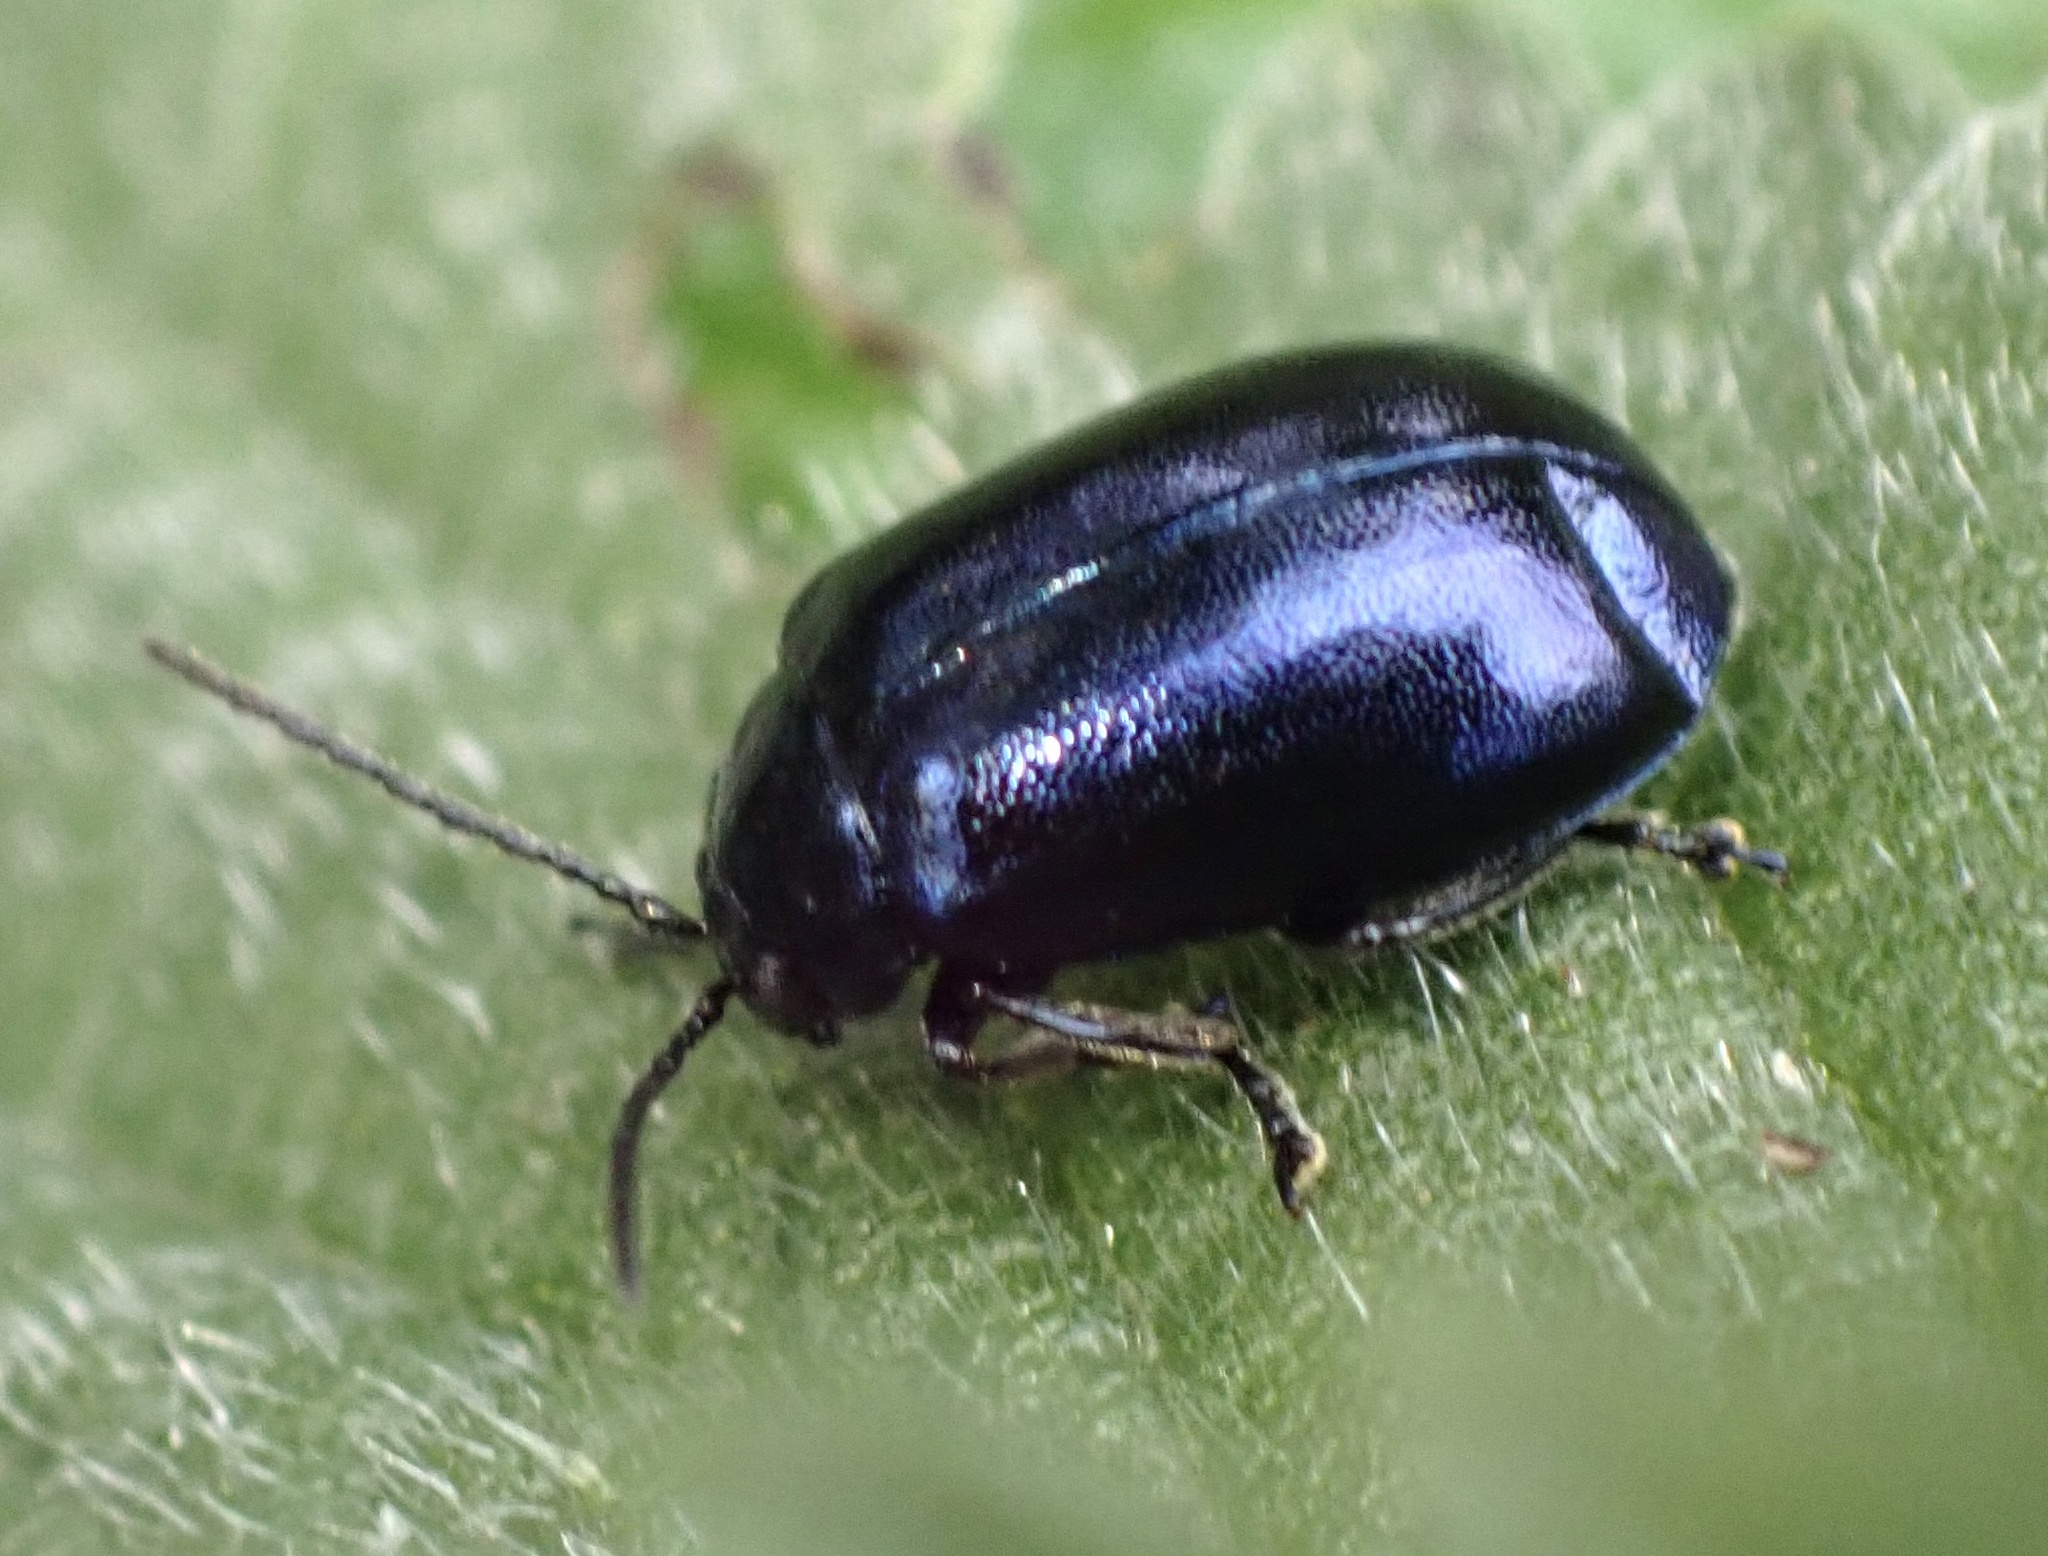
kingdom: Animalia
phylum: Arthropoda
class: Insecta
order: Coleoptera
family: Chrysomelidae
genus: Agelastica
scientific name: Agelastica alni
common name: Alder leaf beetle
